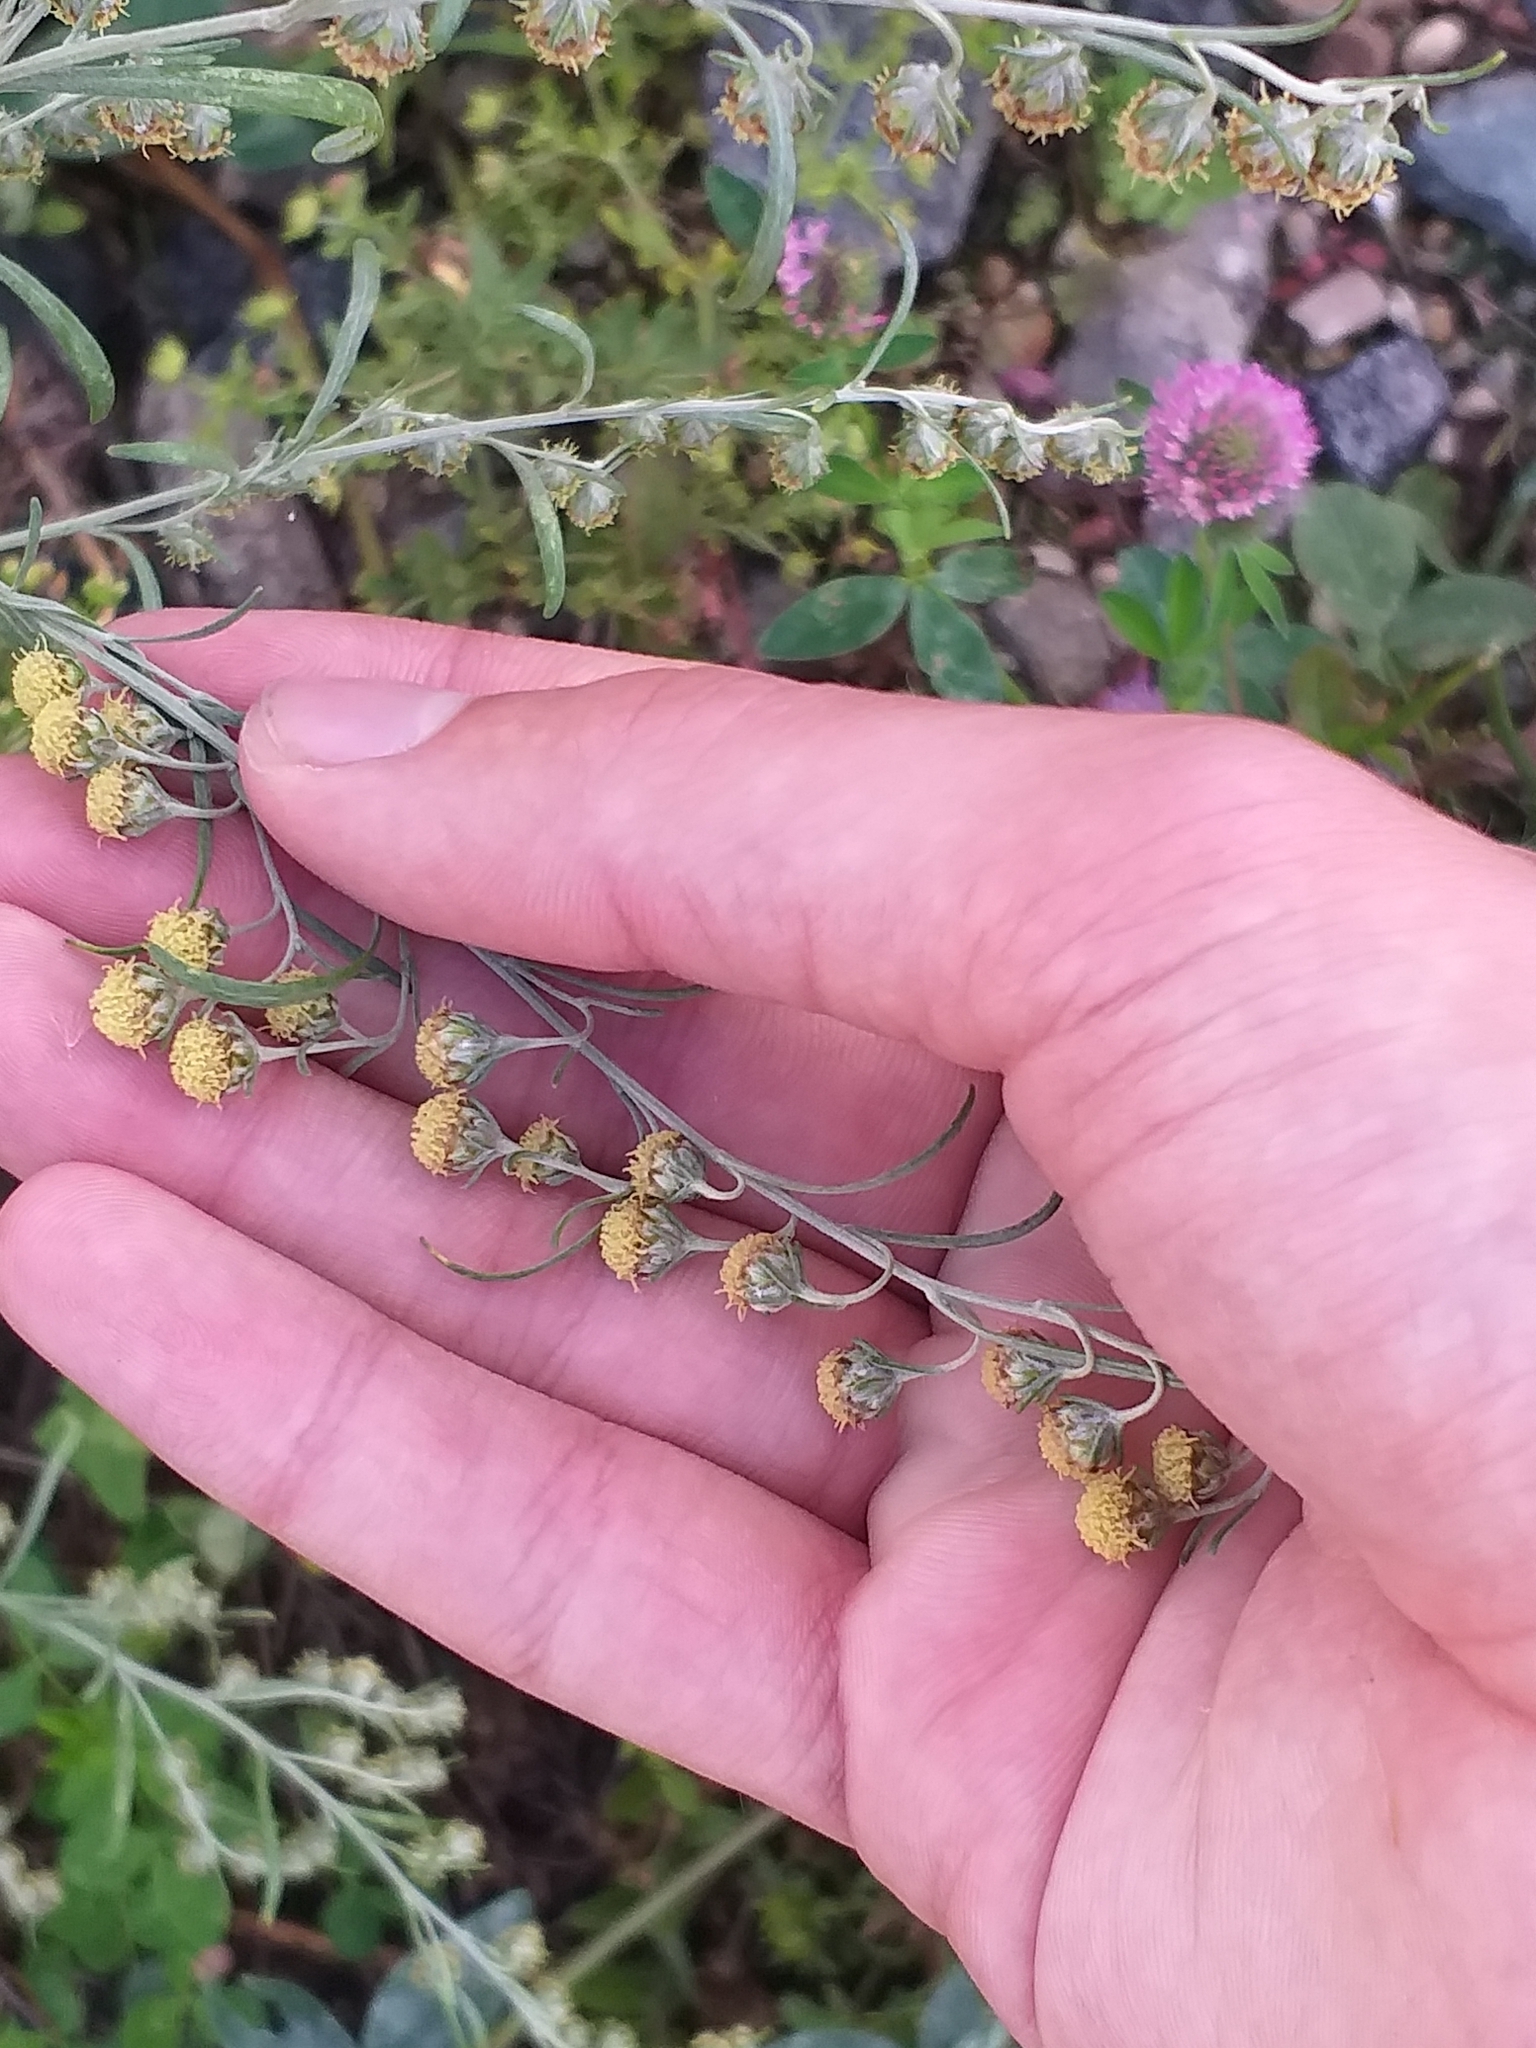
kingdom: Plantae
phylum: Tracheophyta
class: Magnoliopsida
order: Asterales
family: Asteraceae
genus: Artemisia
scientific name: Artemisia absinthium
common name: Wormwood
